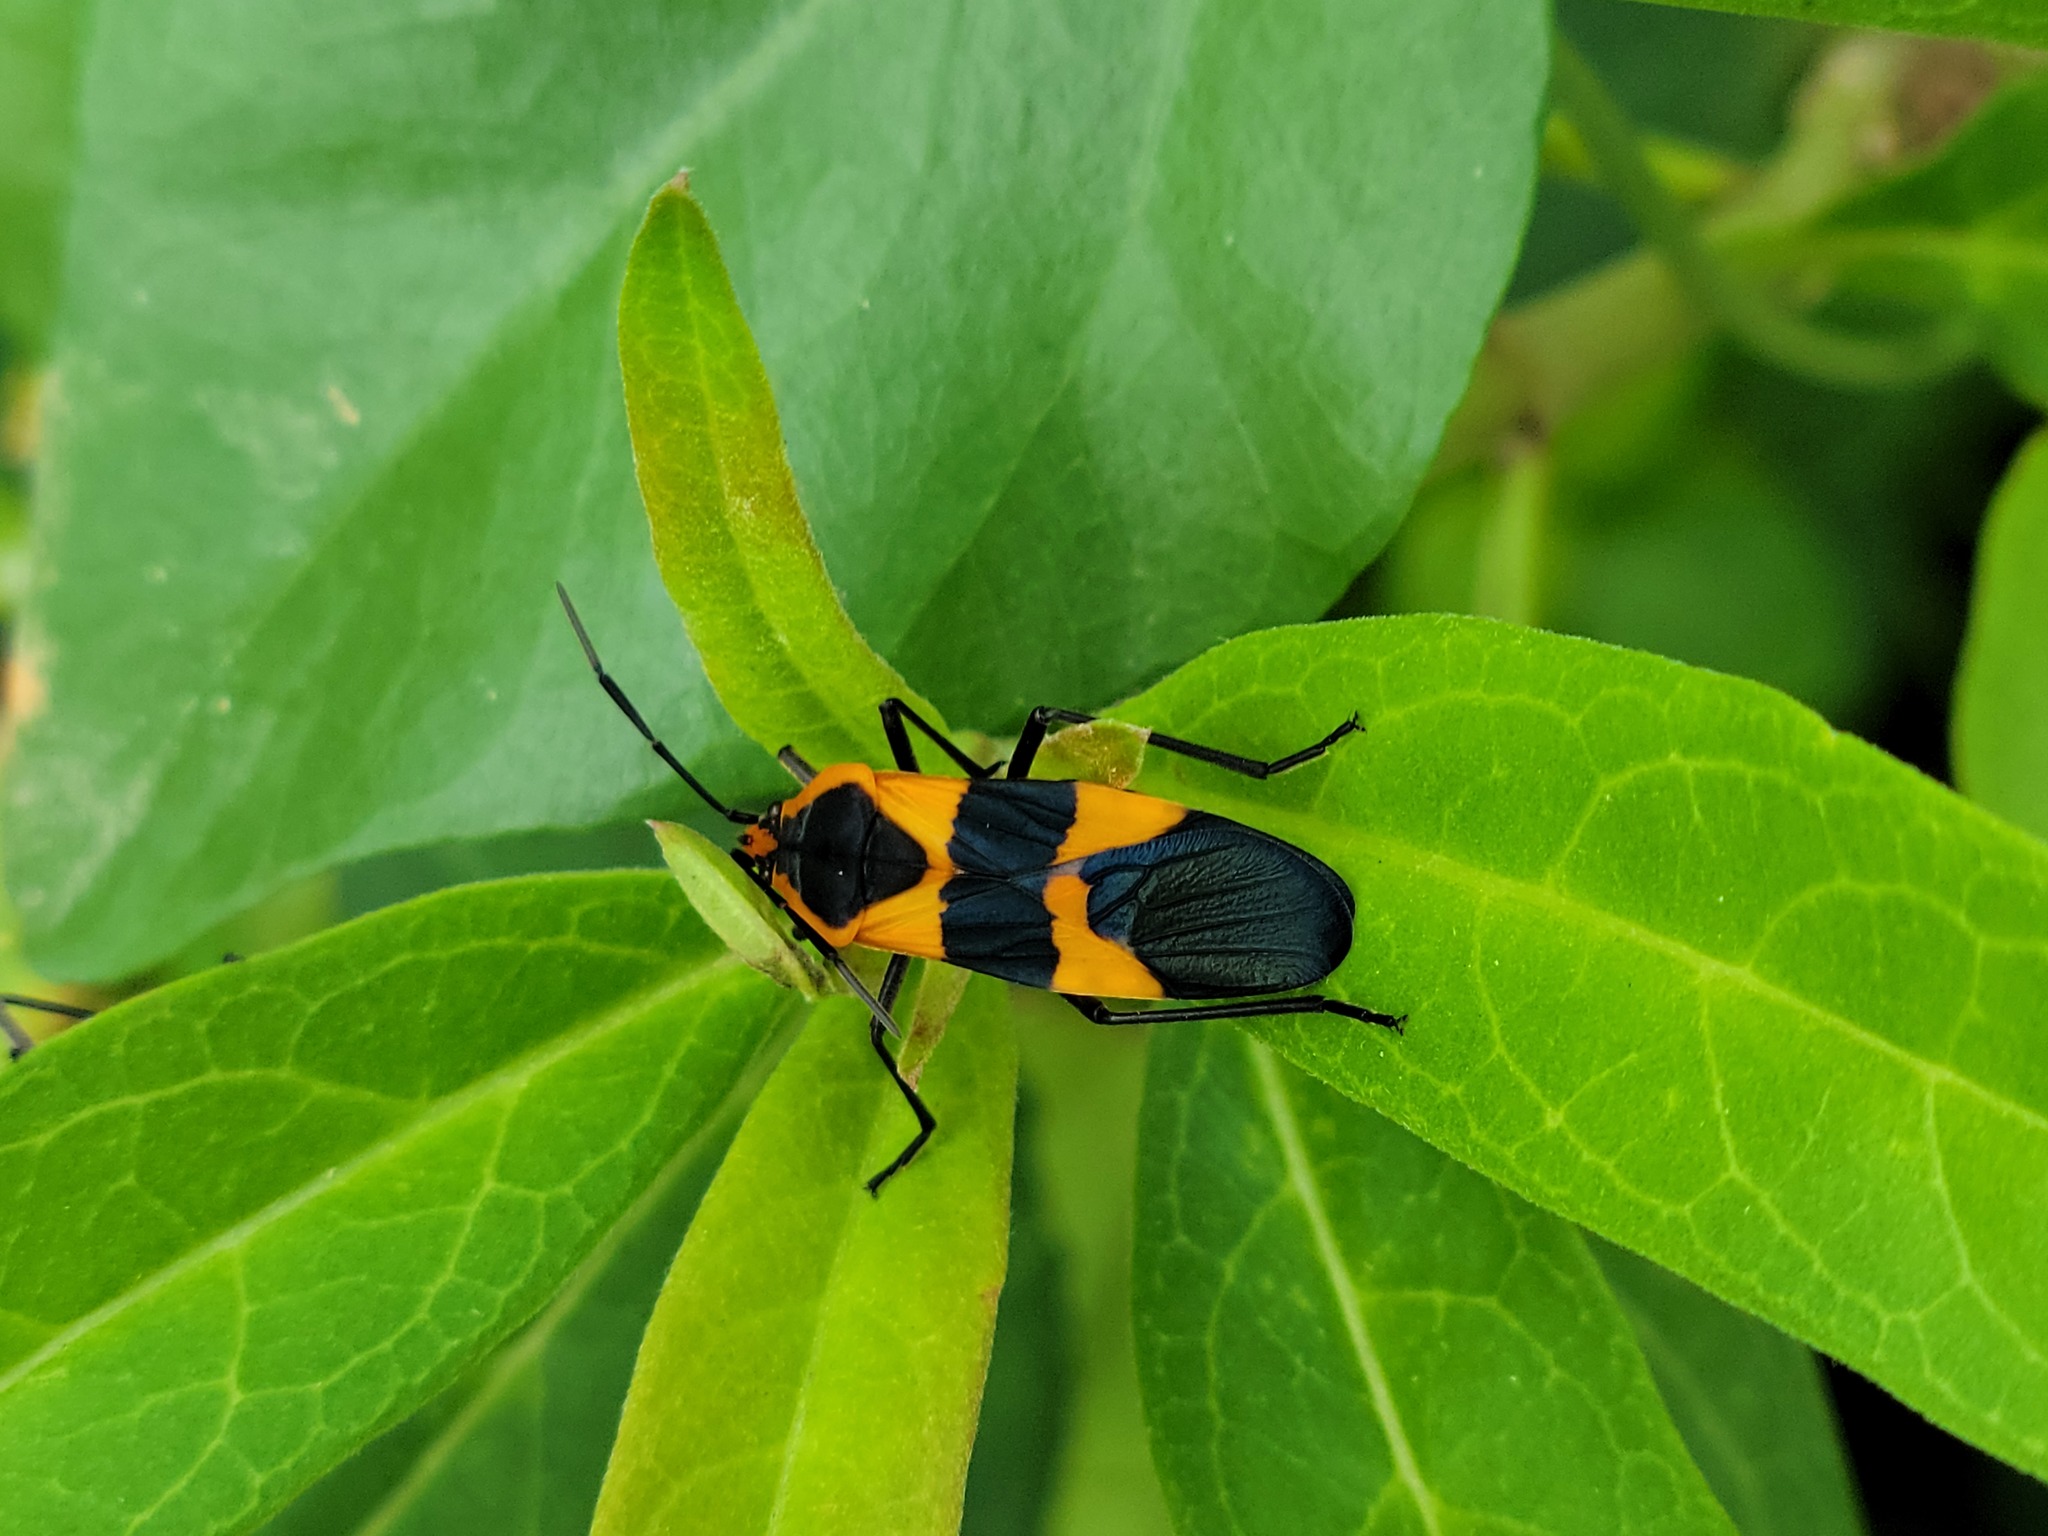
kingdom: Animalia
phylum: Arthropoda
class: Insecta
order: Hemiptera
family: Lygaeidae
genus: Oncopeltus
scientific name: Oncopeltus fasciatus
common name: Large milkweed bug
